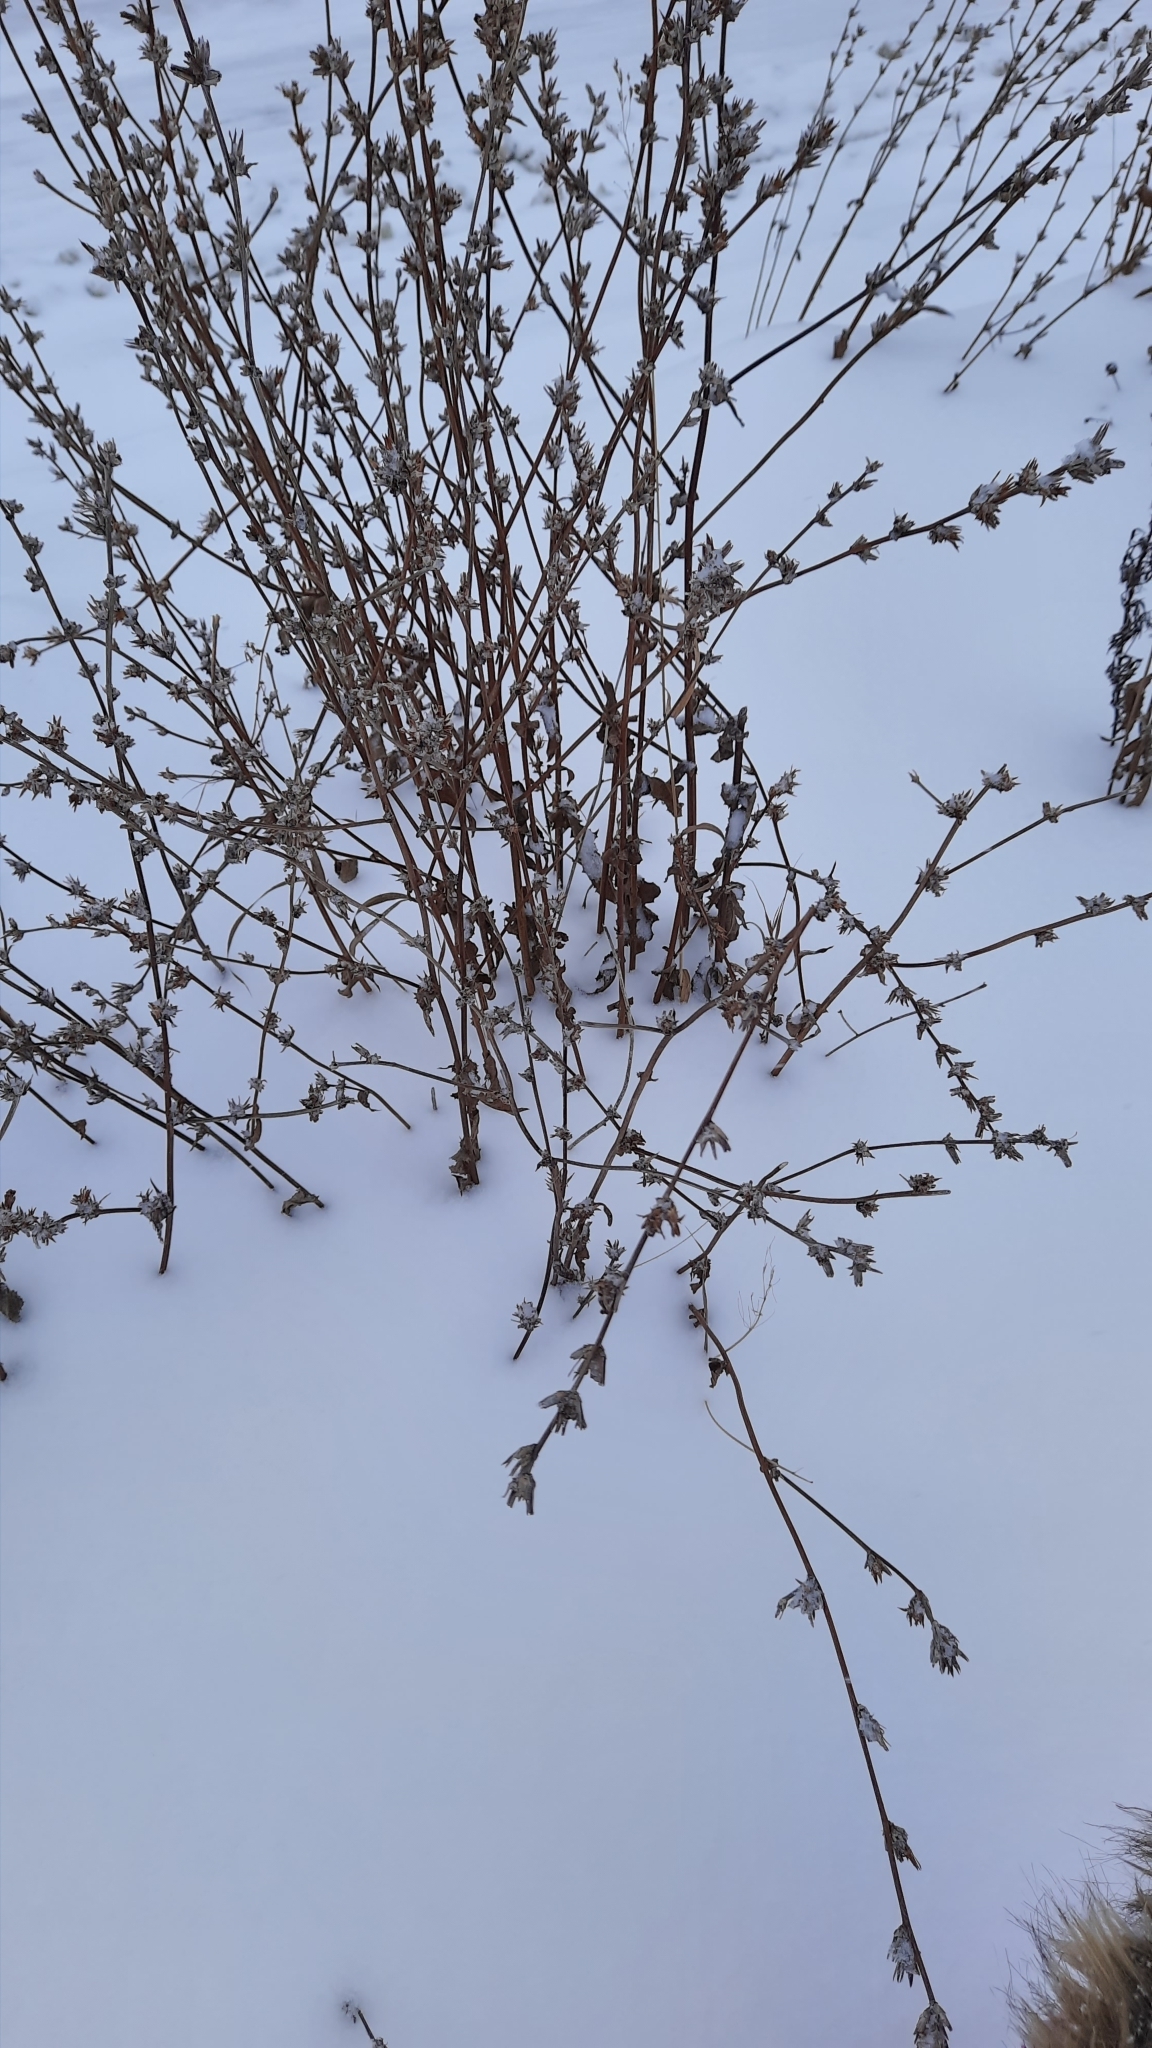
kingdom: Plantae
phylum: Tracheophyta
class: Magnoliopsida
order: Asterales
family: Asteraceae
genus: Cichorium
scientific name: Cichorium intybus
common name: Chicory
